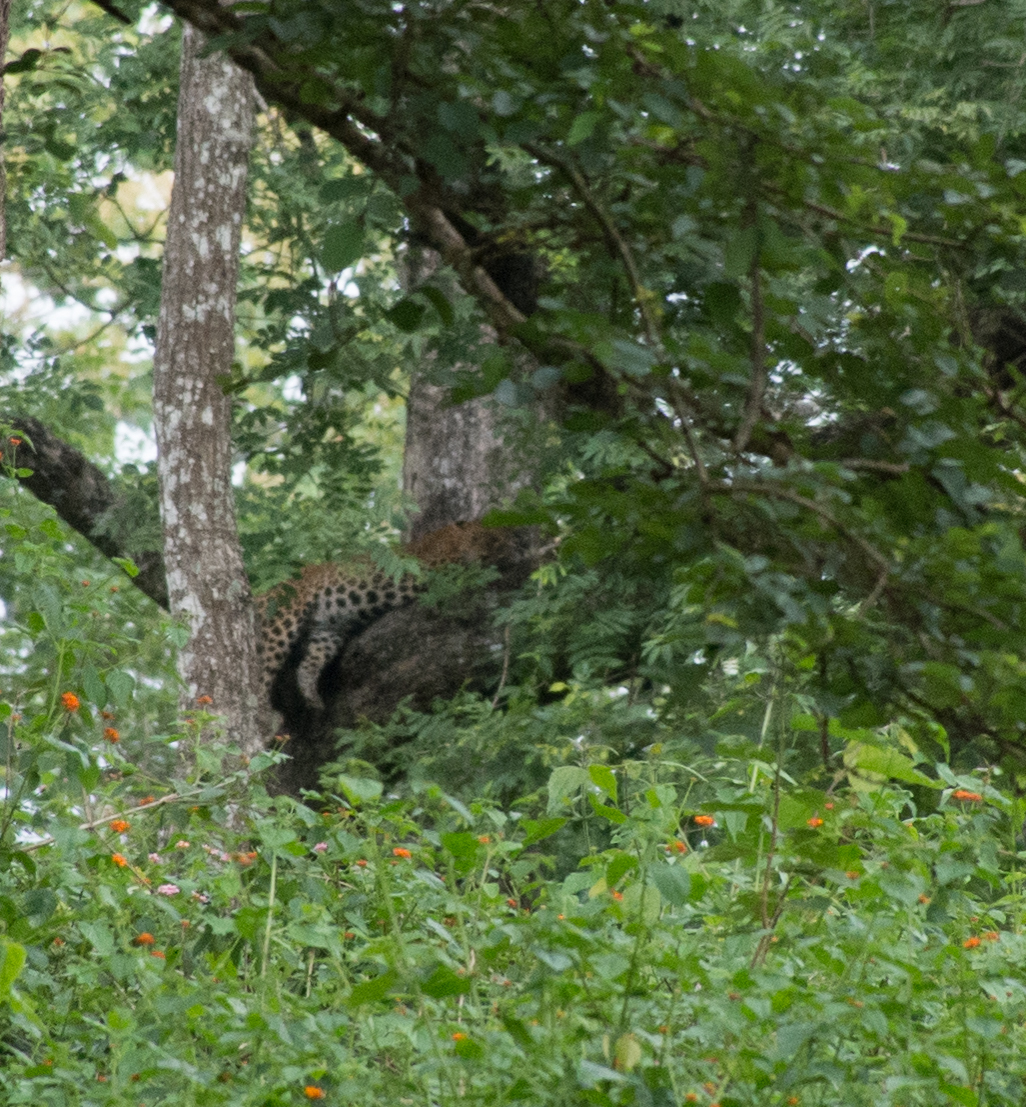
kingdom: Animalia
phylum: Chordata
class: Mammalia
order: Carnivora
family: Felidae
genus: Panthera
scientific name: Panthera pardus
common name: Leopard
